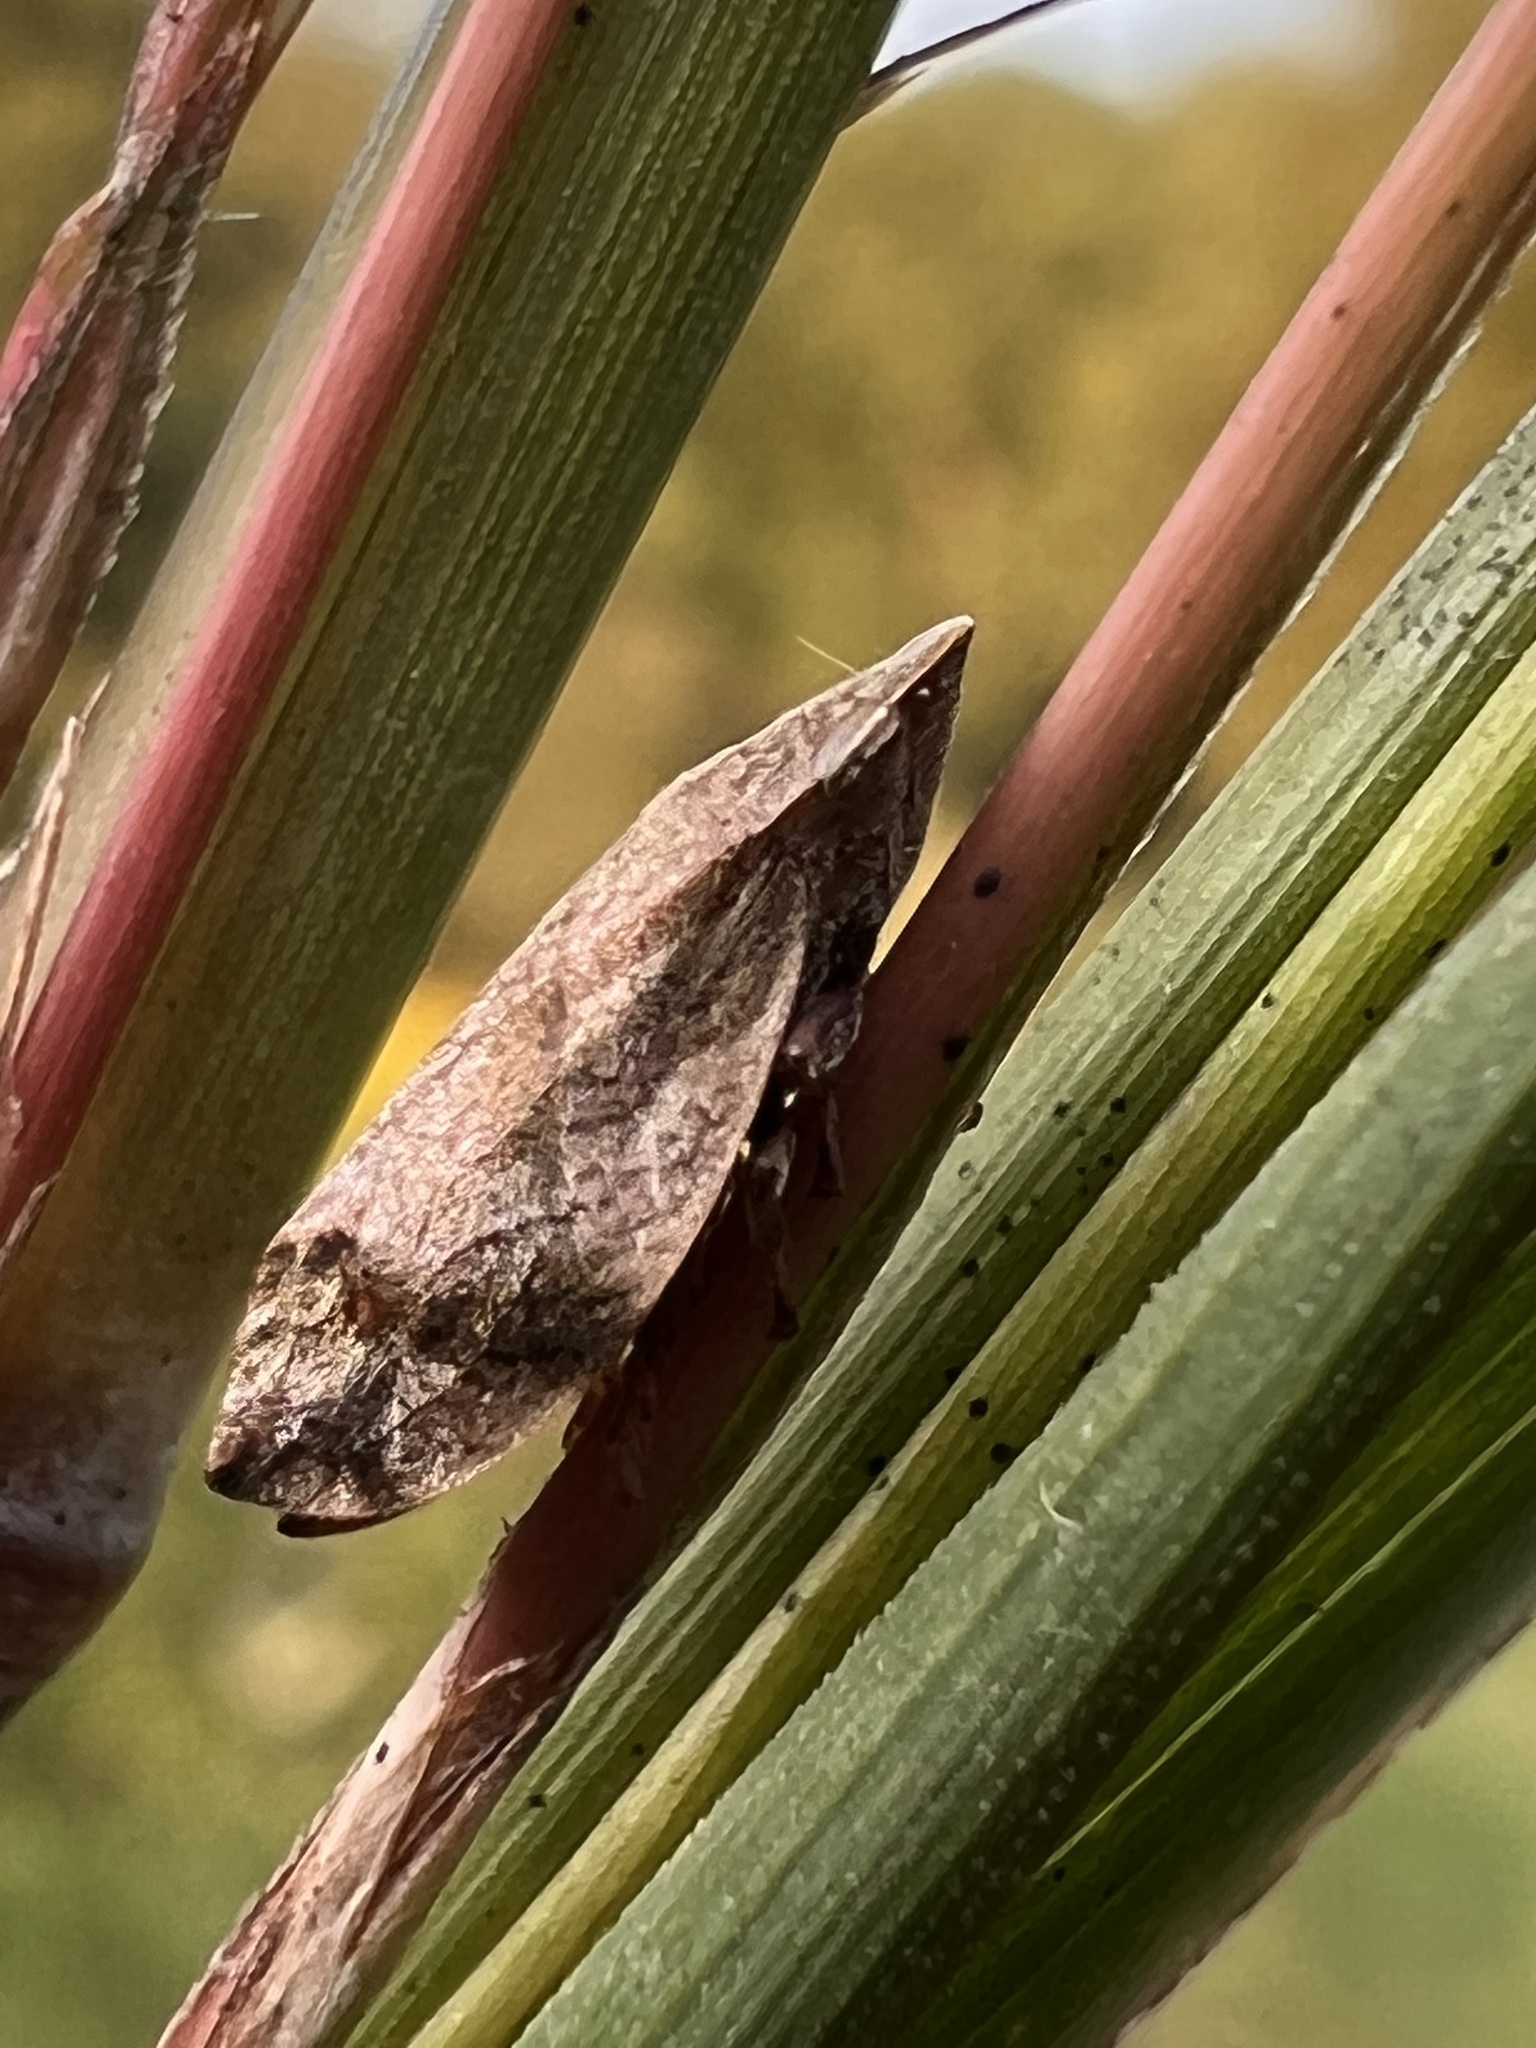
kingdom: Animalia
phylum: Arthropoda
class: Insecta
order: Hemiptera
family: Aphrophoridae
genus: Lepyronia
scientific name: Lepyronia quadrangularis
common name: Diamond-backed spittlebug
